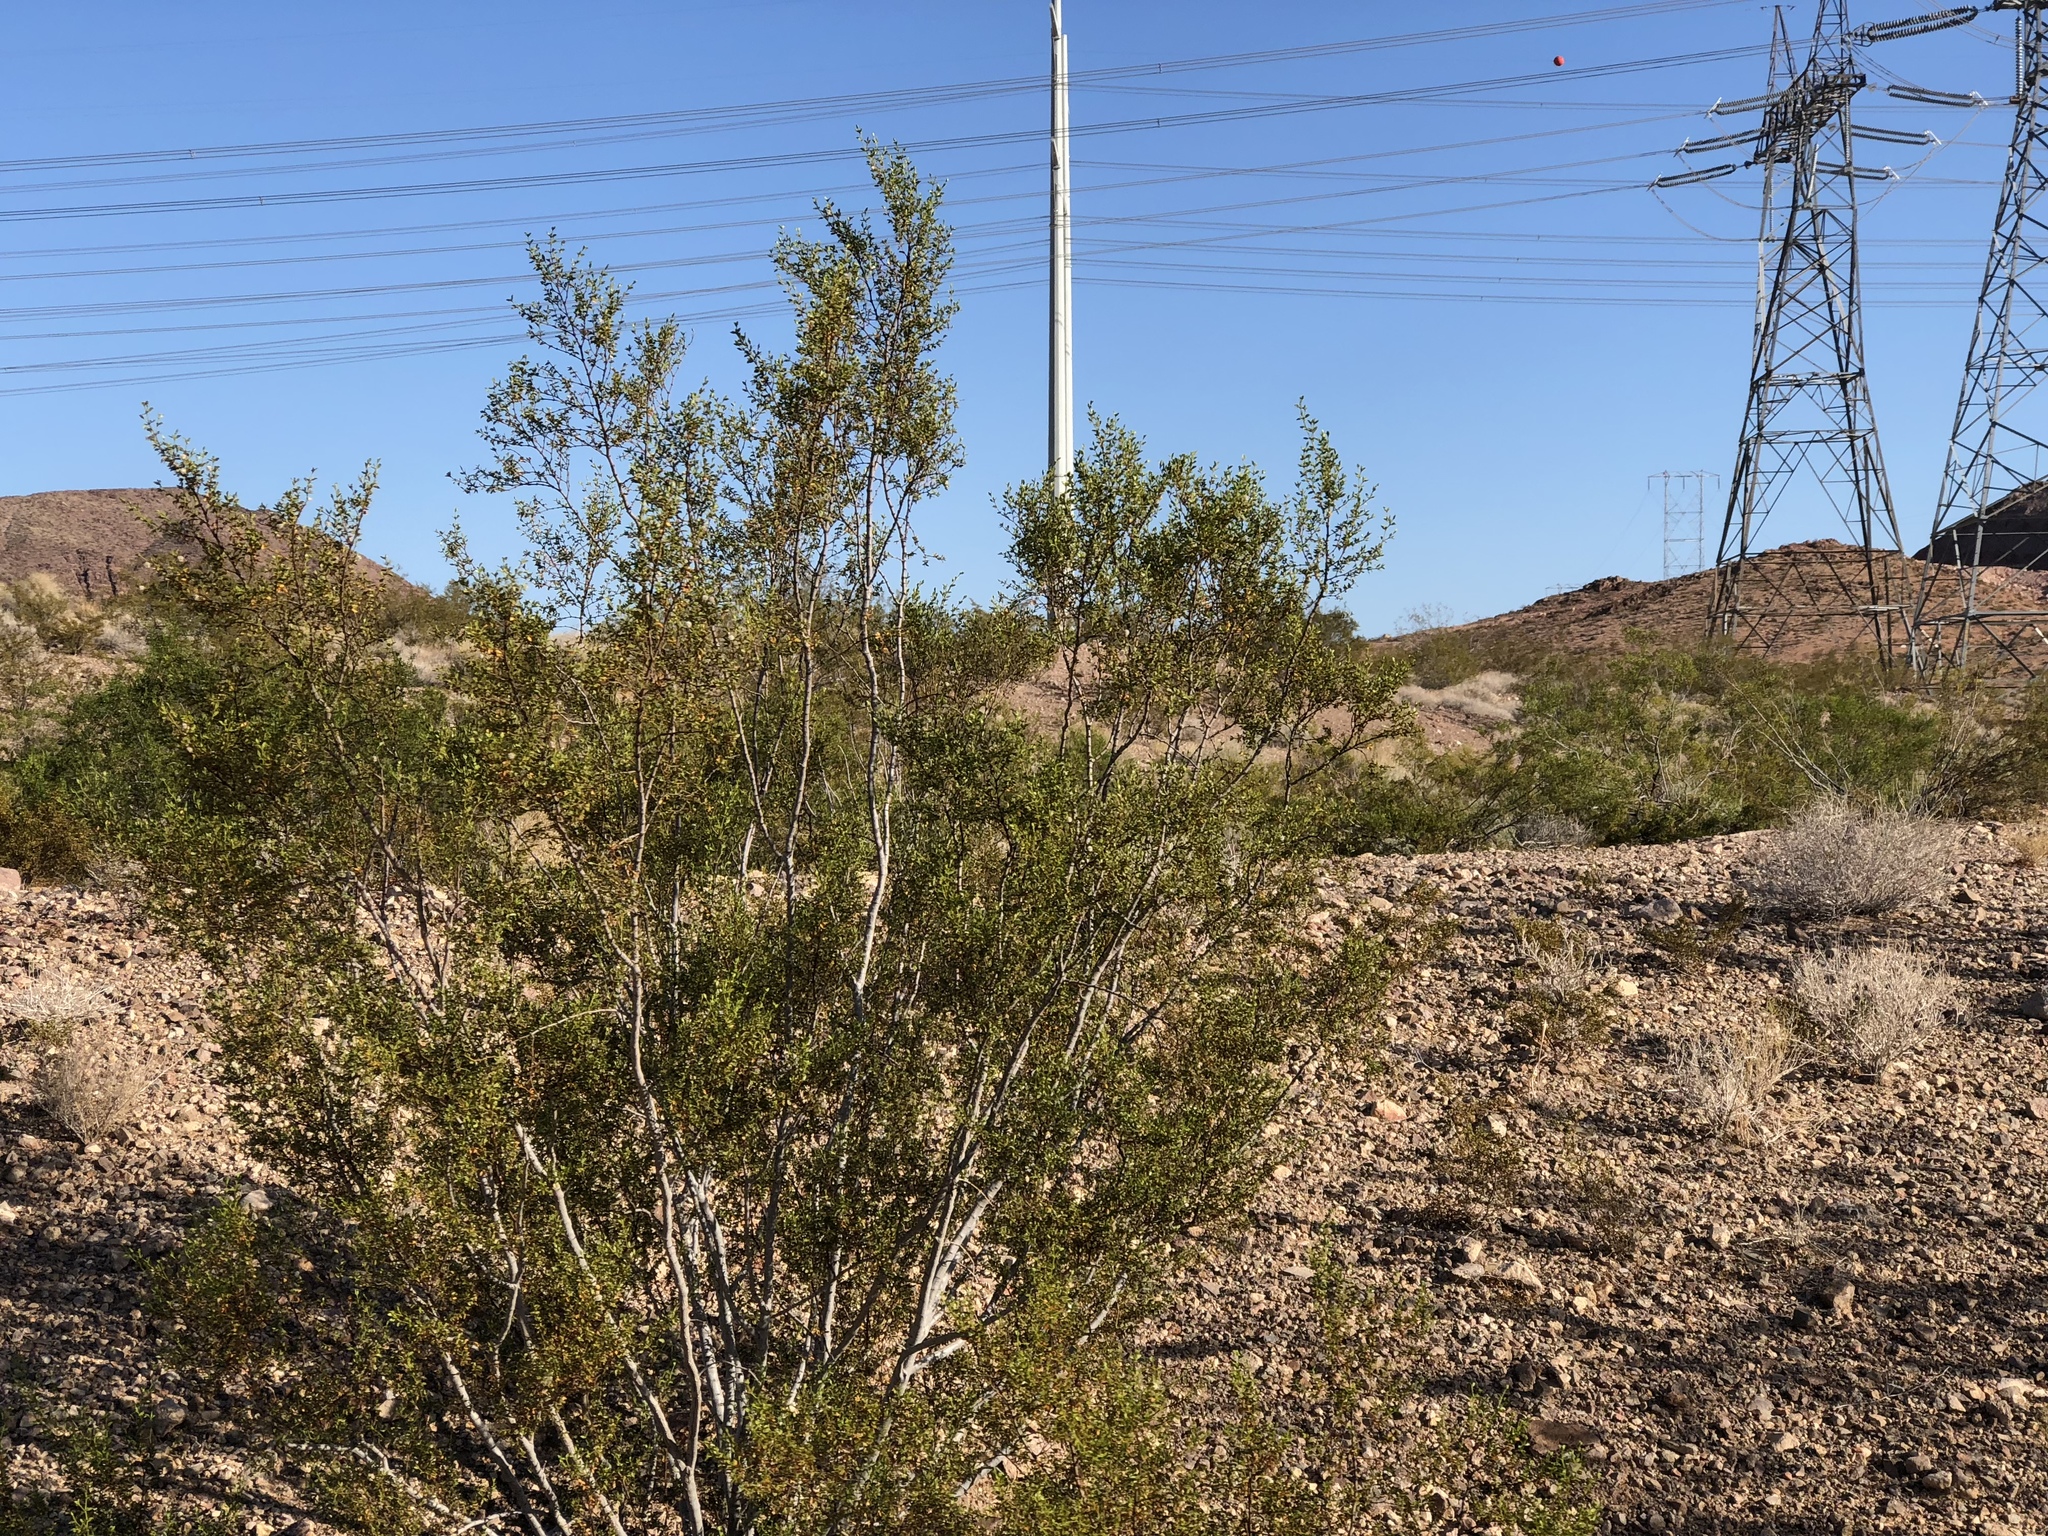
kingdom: Plantae
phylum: Tracheophyta
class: Magnoliopsida
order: Zygophyllales
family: Zygophyllaceae
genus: Larrea
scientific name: Larrea tridentata
